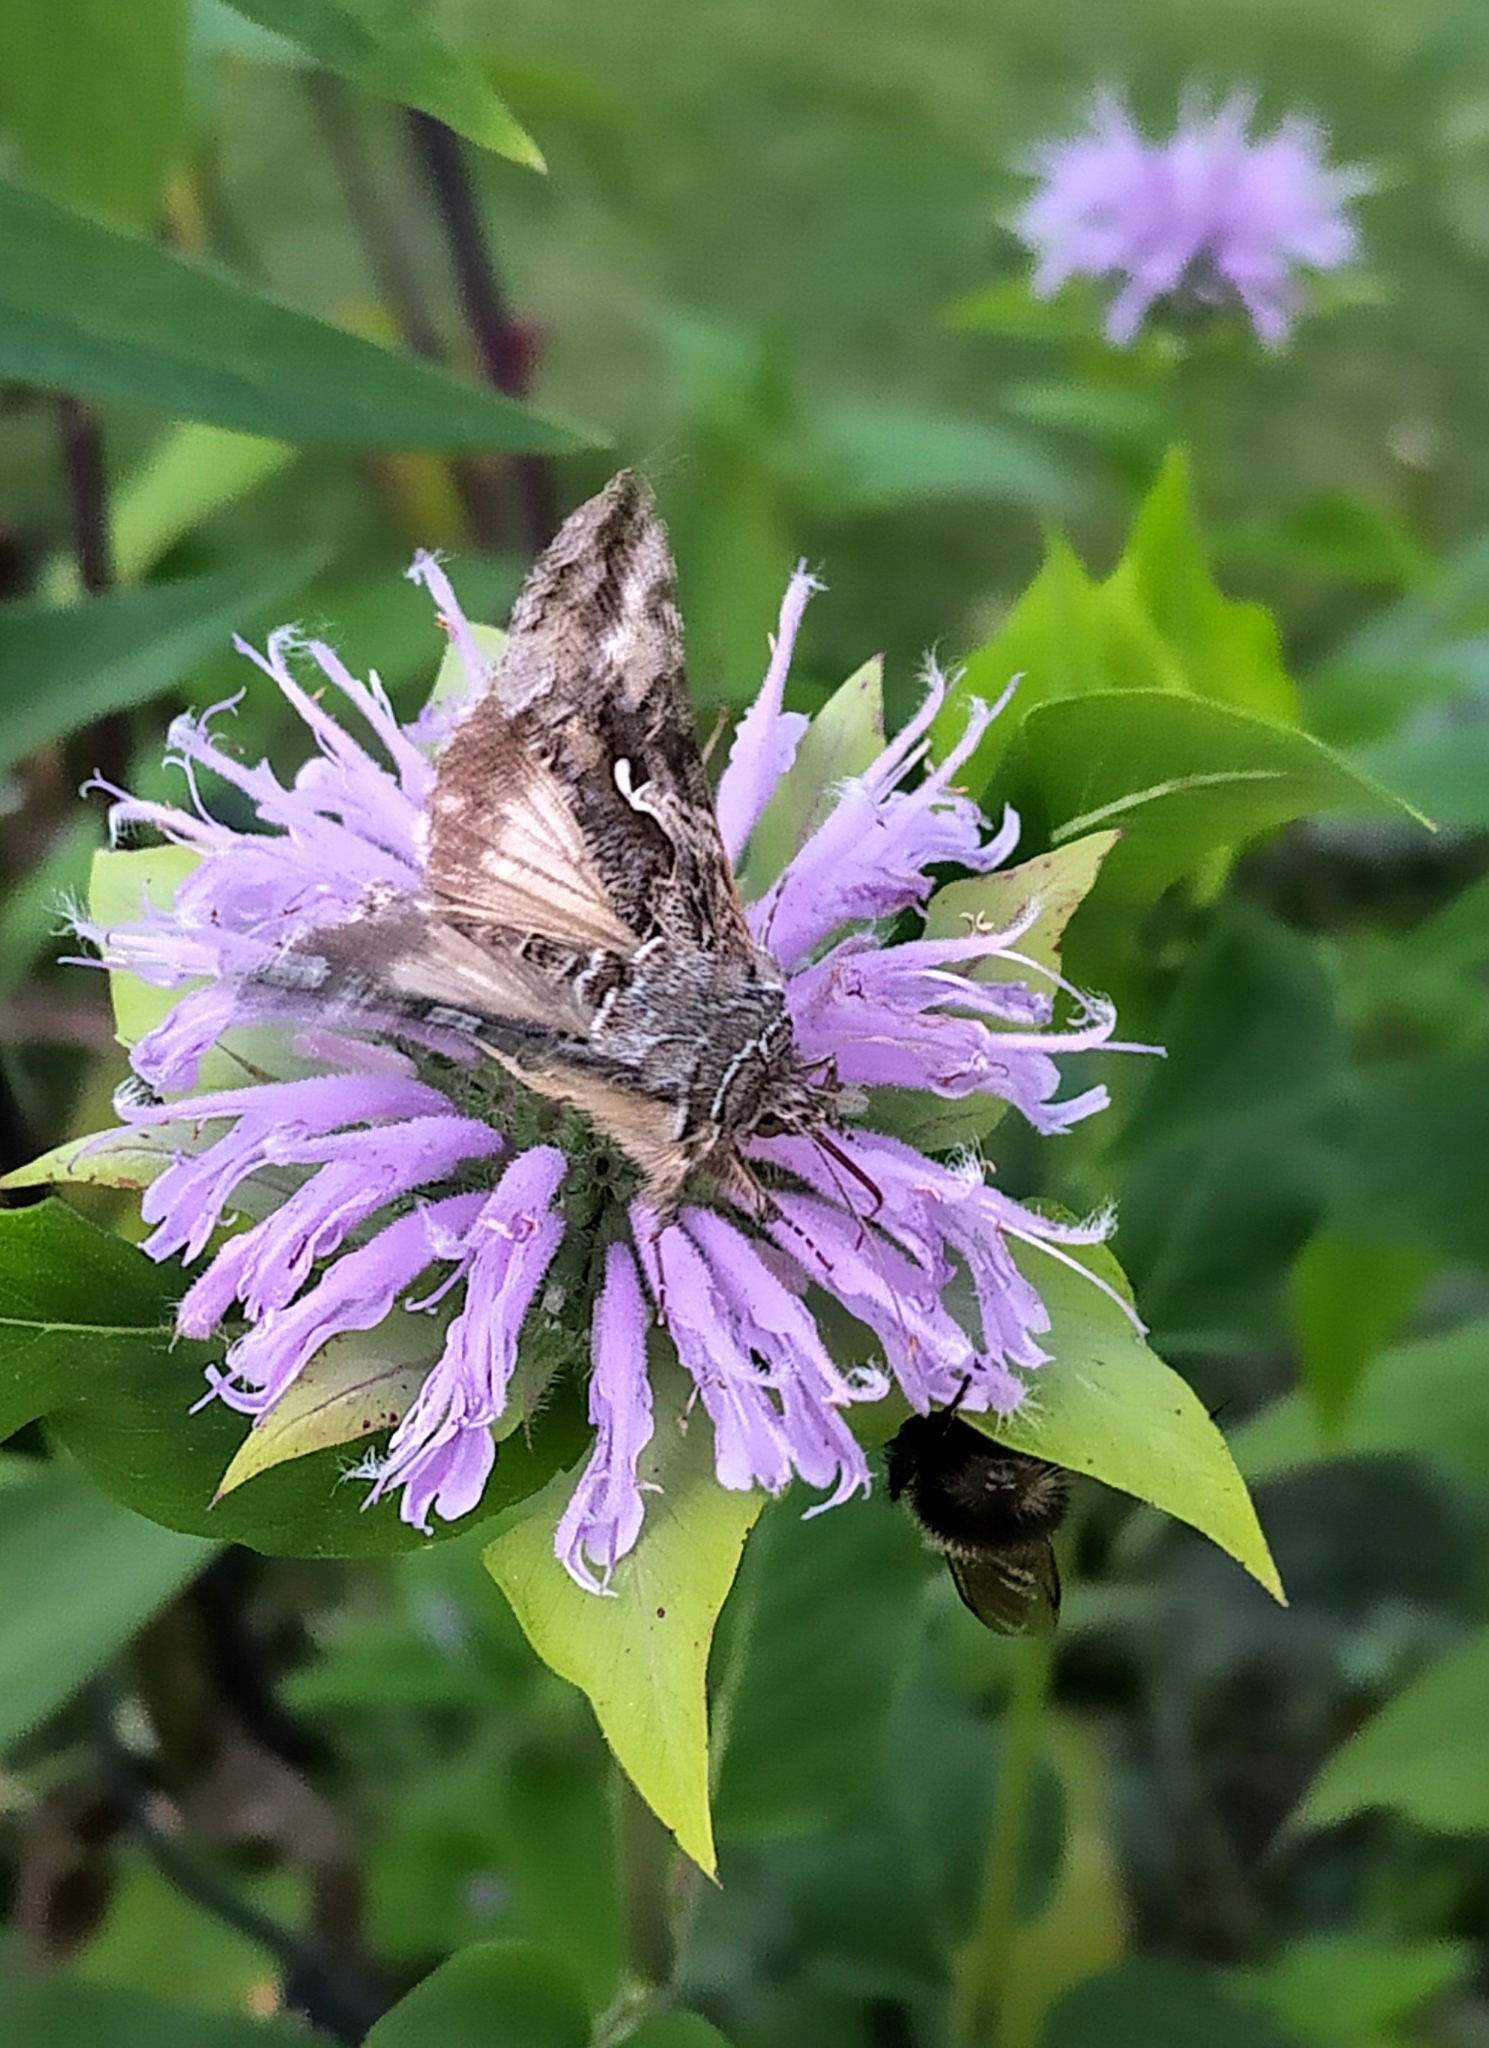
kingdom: Animalia
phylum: Arthropoda
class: Insecta
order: Lepidoptera
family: Noctuidae
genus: Autographa
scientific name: Autographa californica
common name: Alfalfa looper
